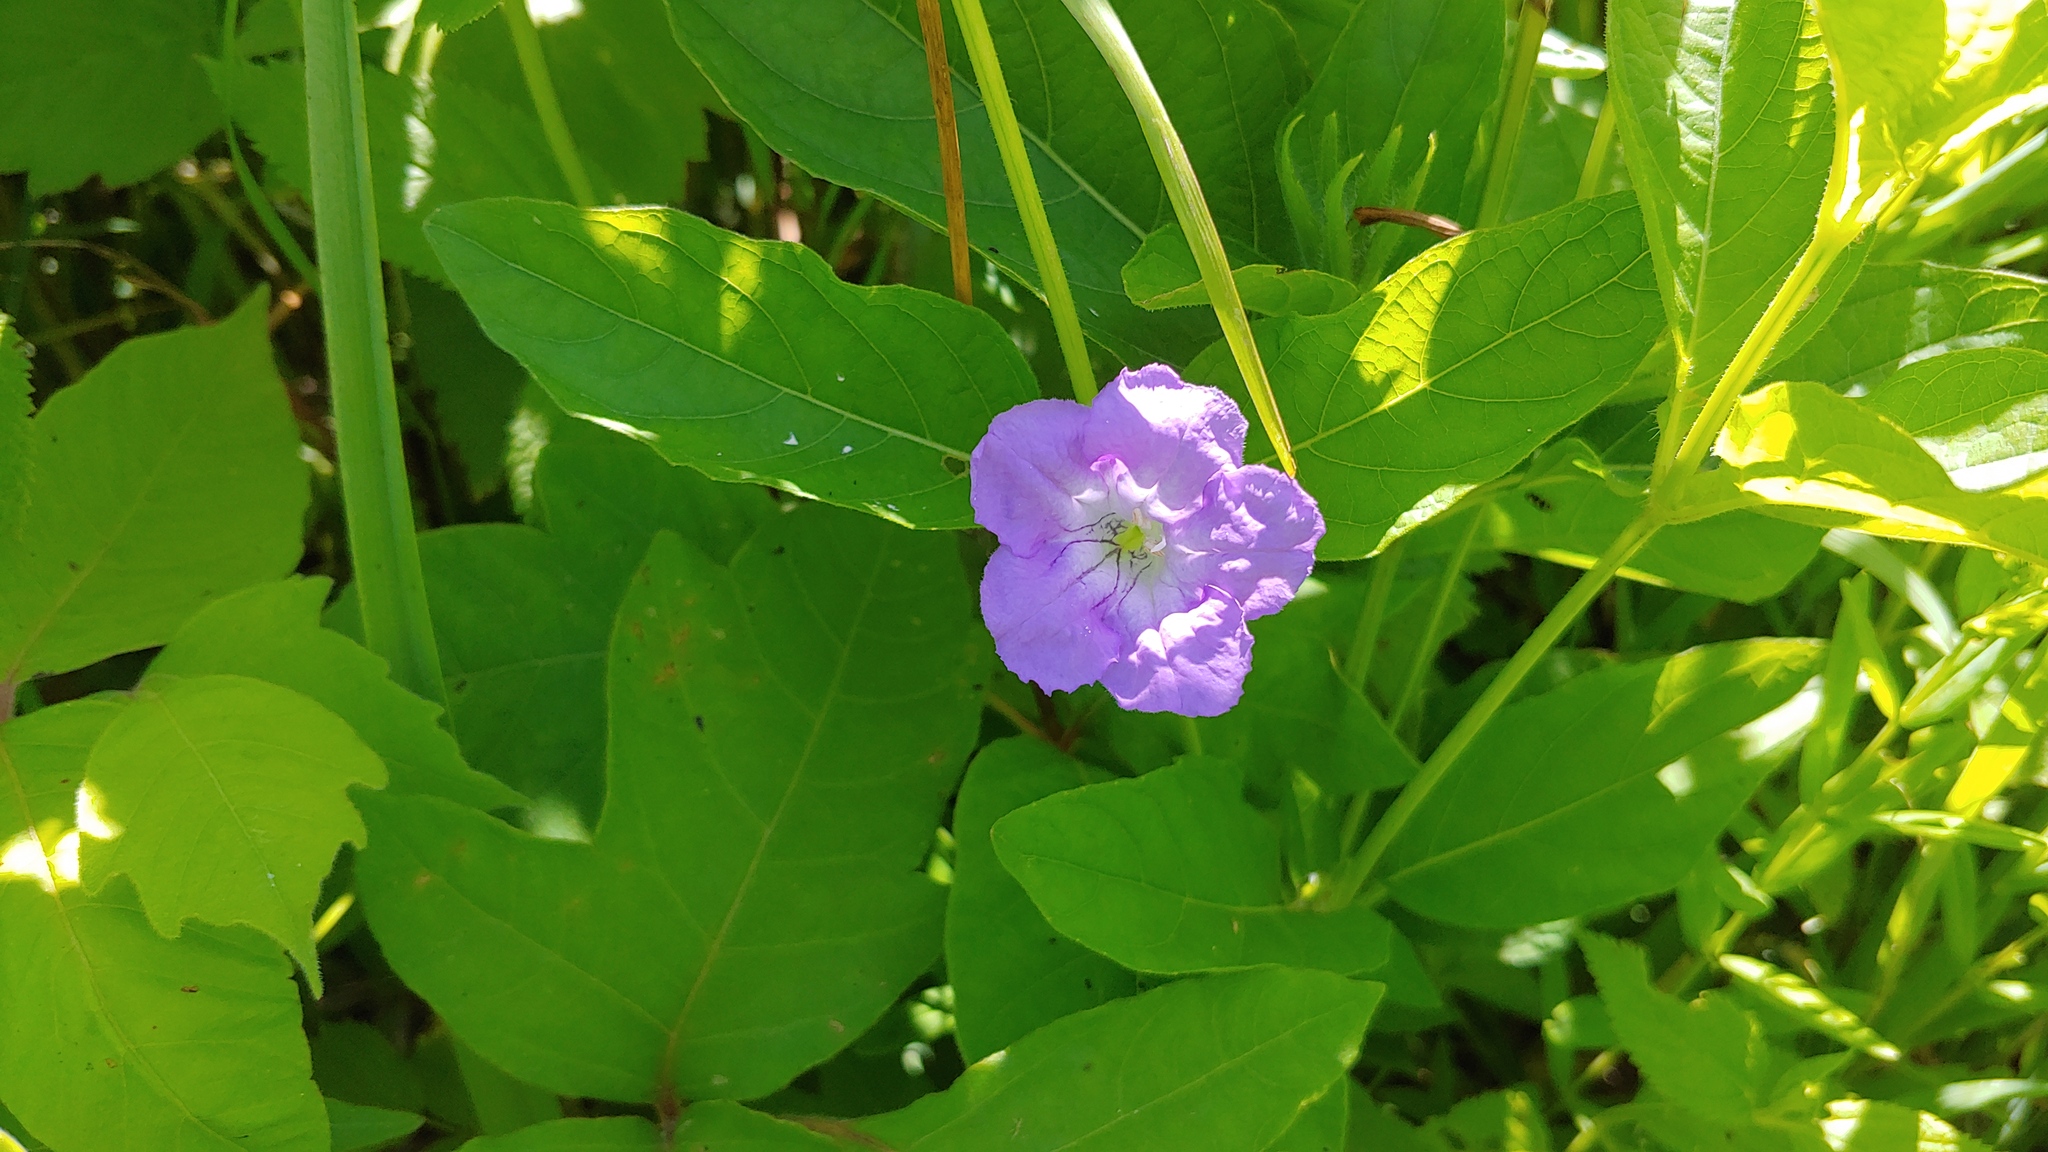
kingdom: Plantae
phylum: Tracheophyta
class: Magnoliopsida
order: Lamiales
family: Acanthaceae
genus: Ruellia
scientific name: Ruellia strepens
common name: Limestone wild petunia
